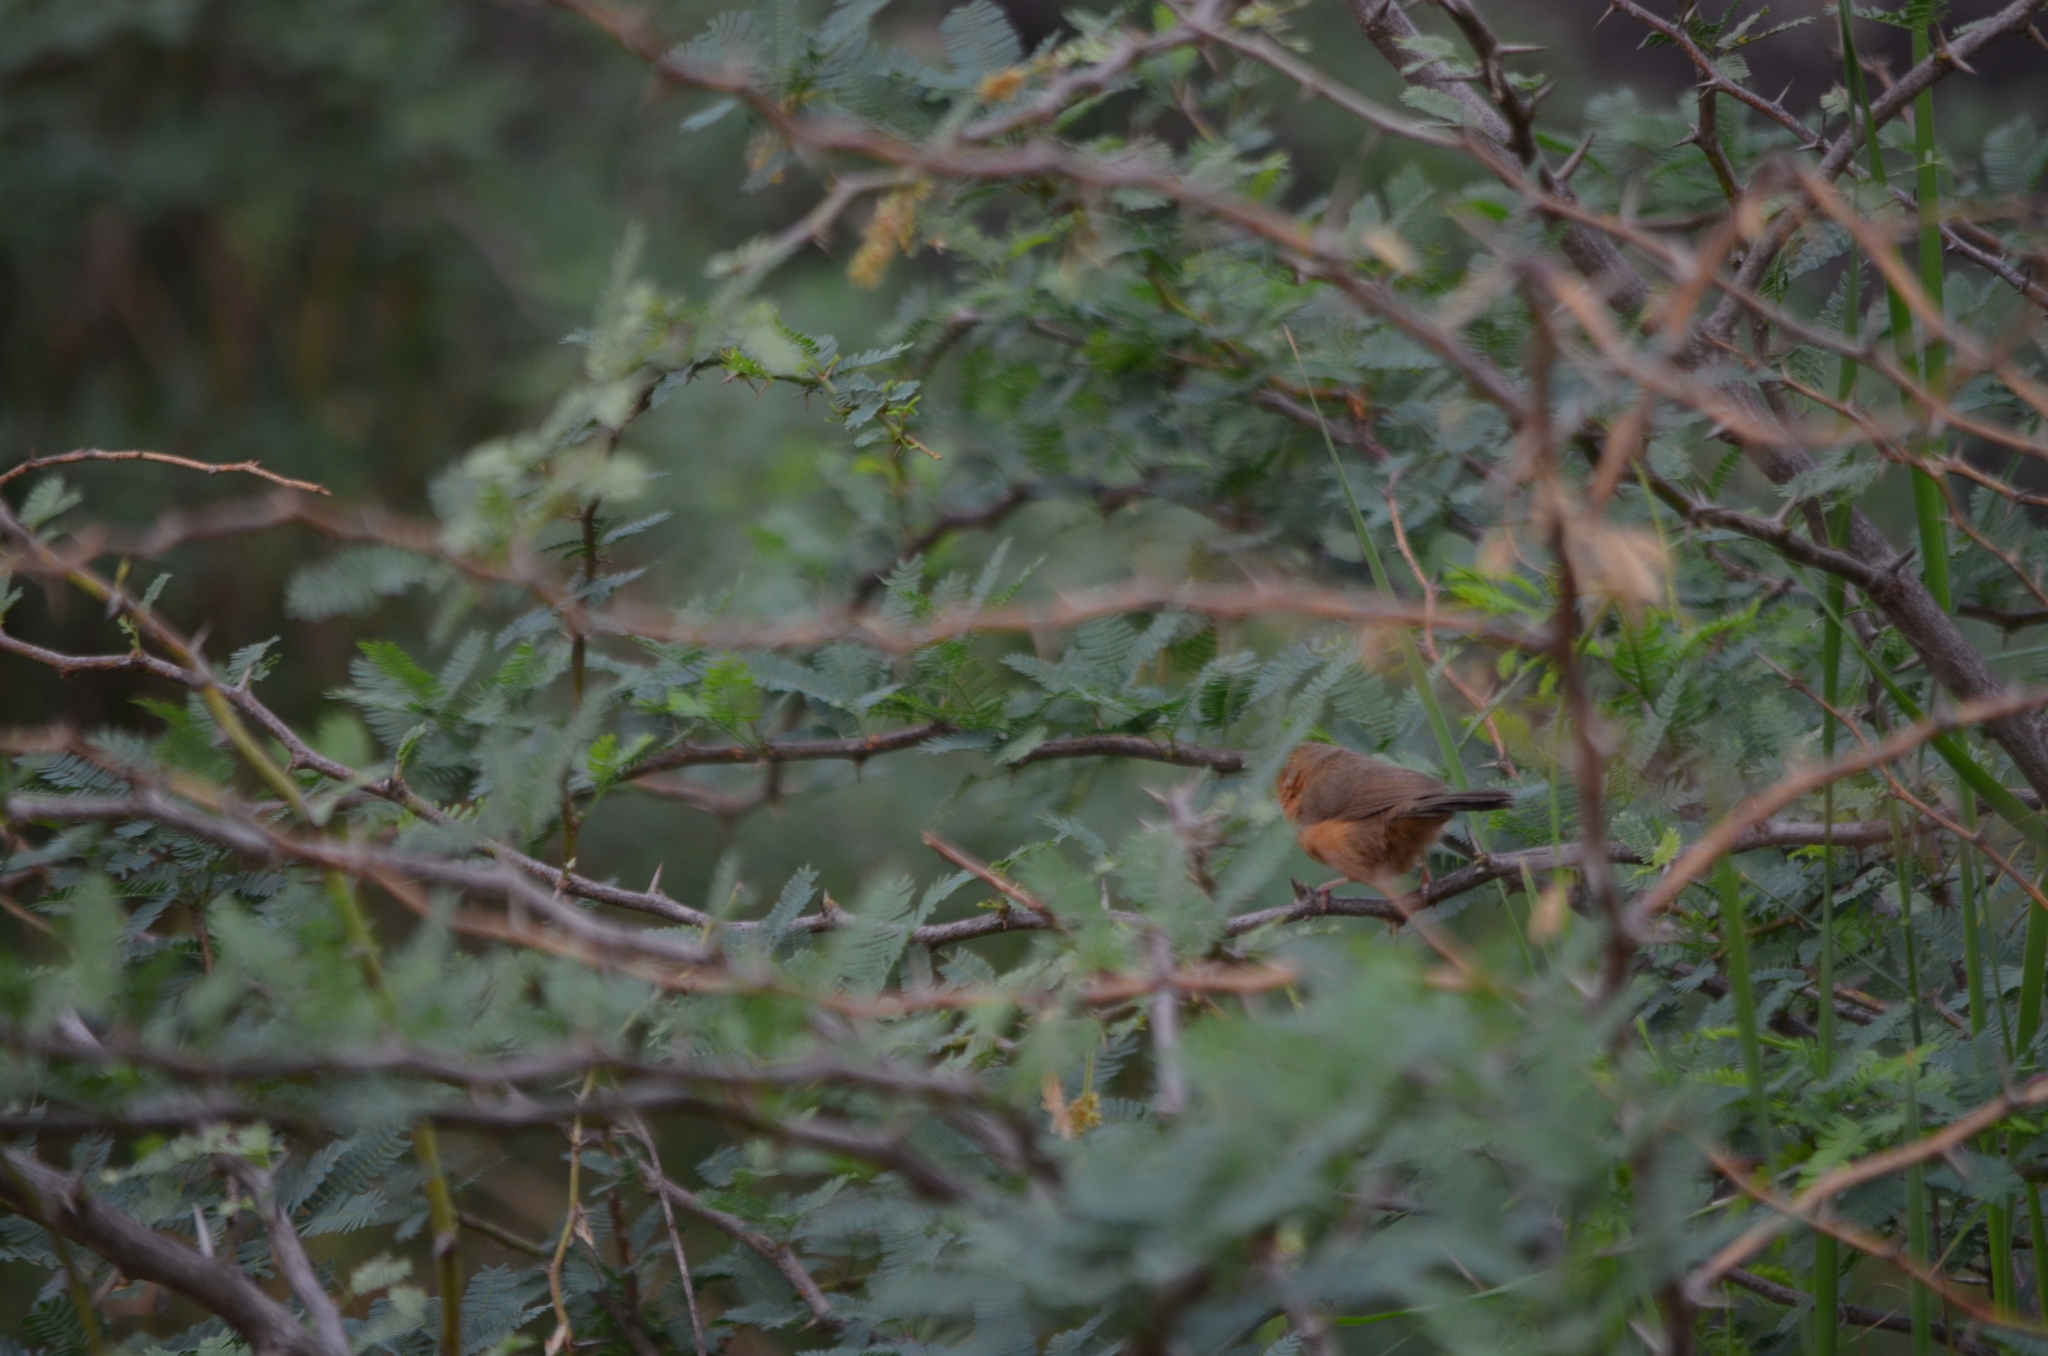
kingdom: Animalia
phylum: Chordata
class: Aves
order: Passeriformes
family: Timaliidae
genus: Dumetia
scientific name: Dumetia hyperythra
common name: Tawny-bellied babbler
